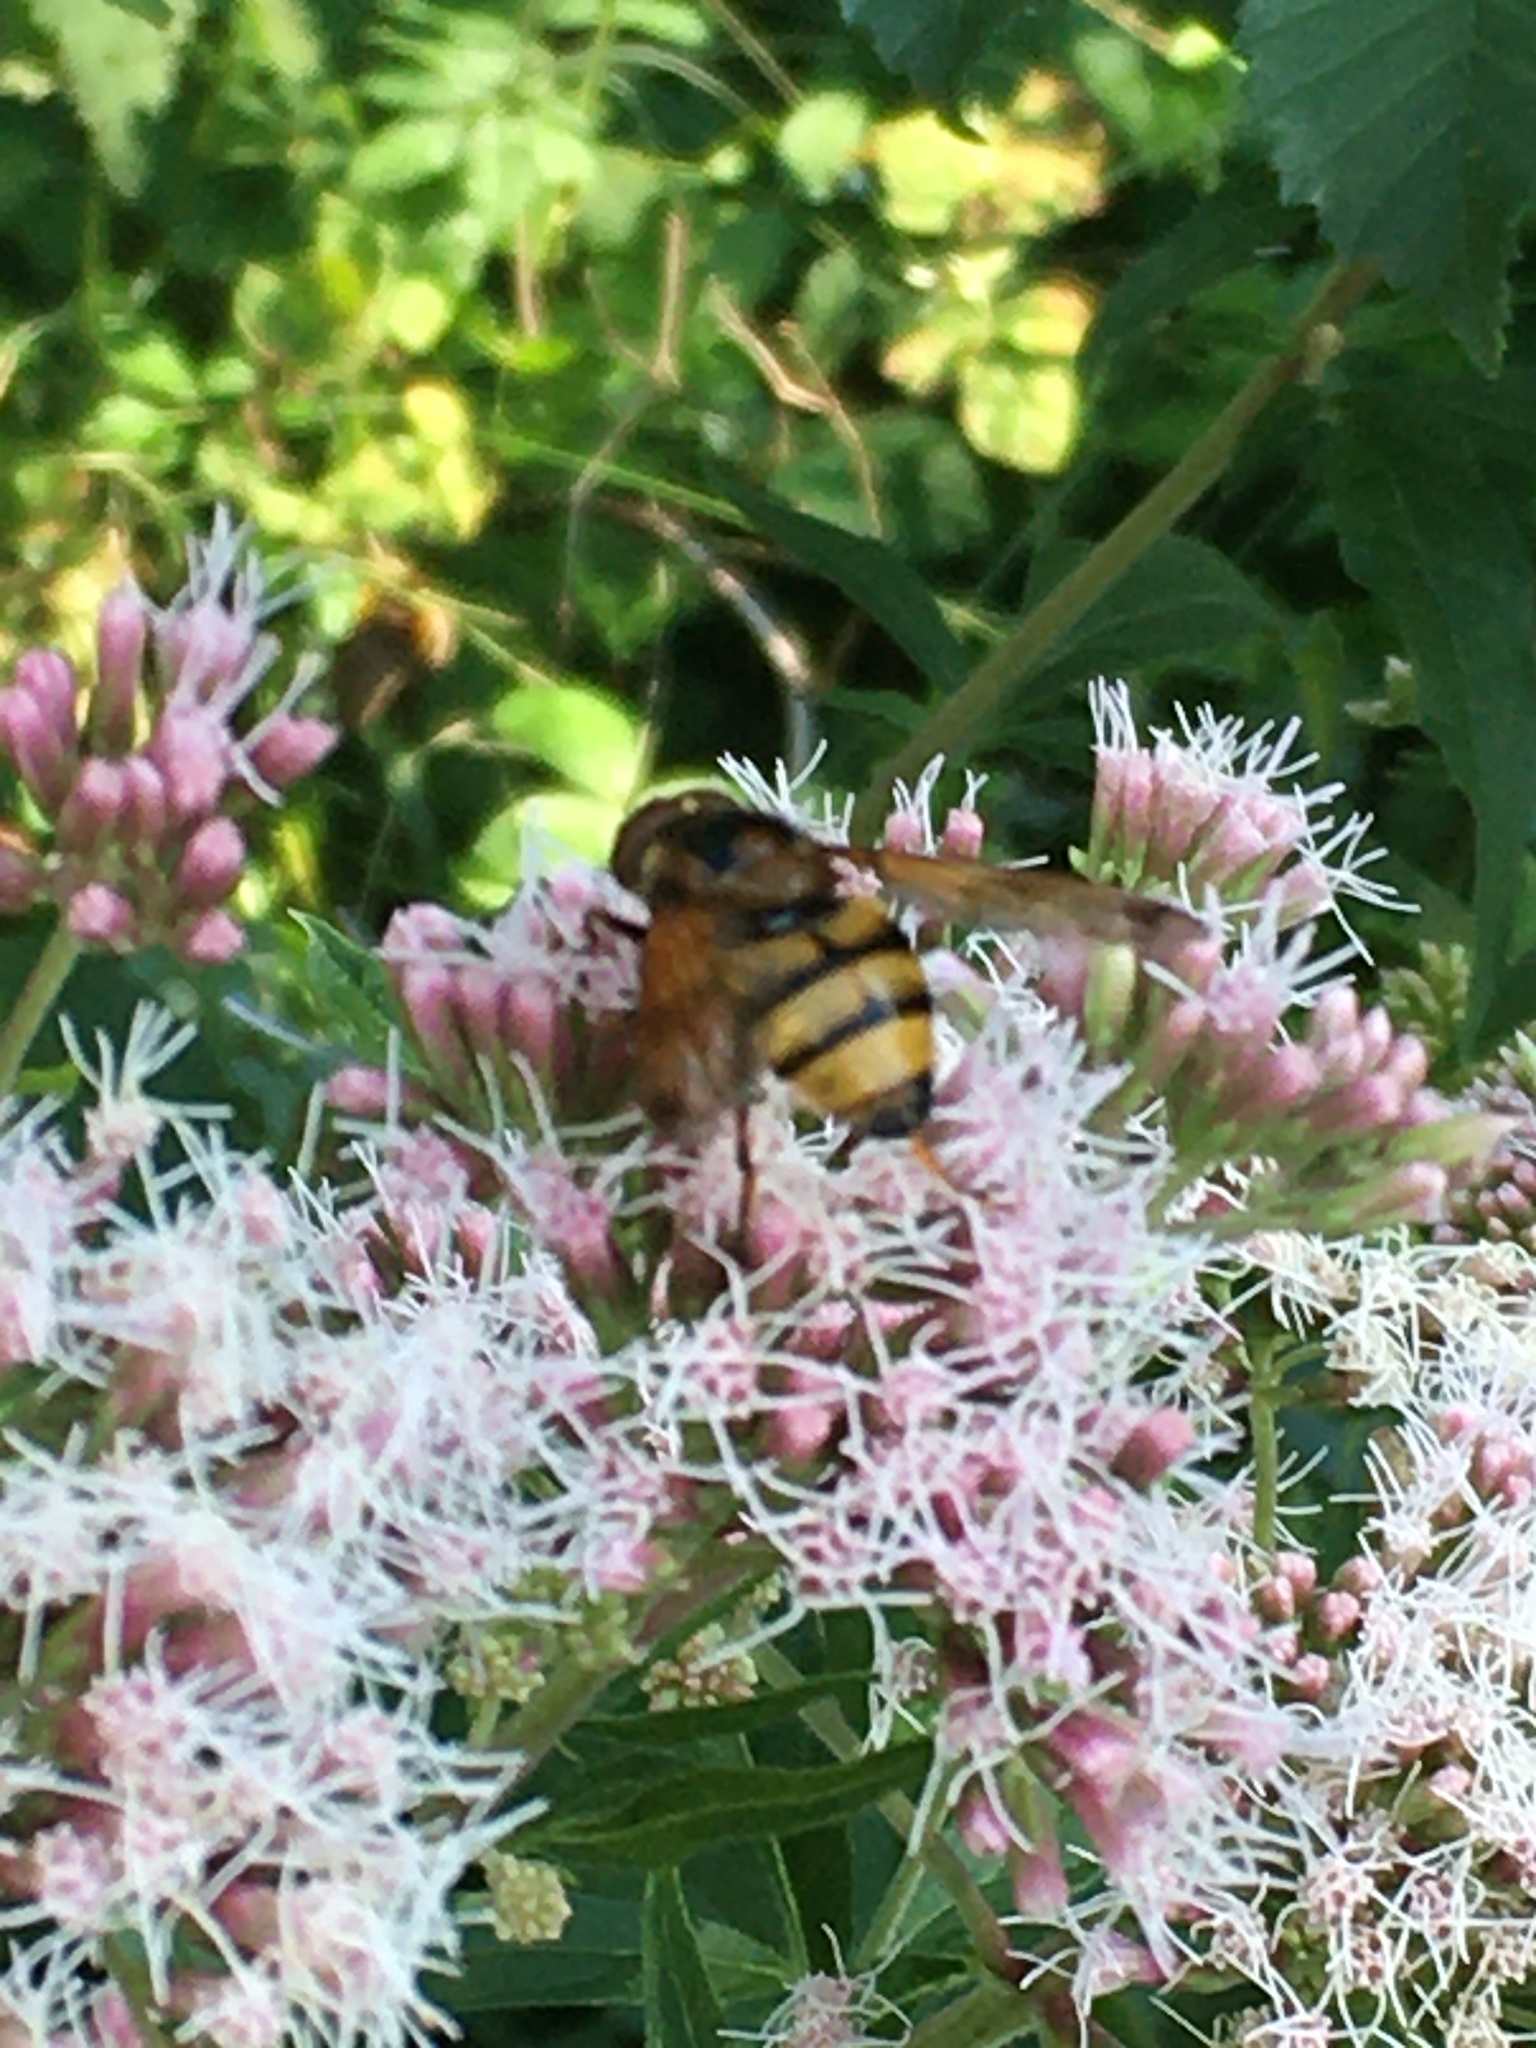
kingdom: Animalia
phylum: Arthropoda
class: Insecta
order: Diptera
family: Syrphidae
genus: Volucella
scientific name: Volucella inanis
